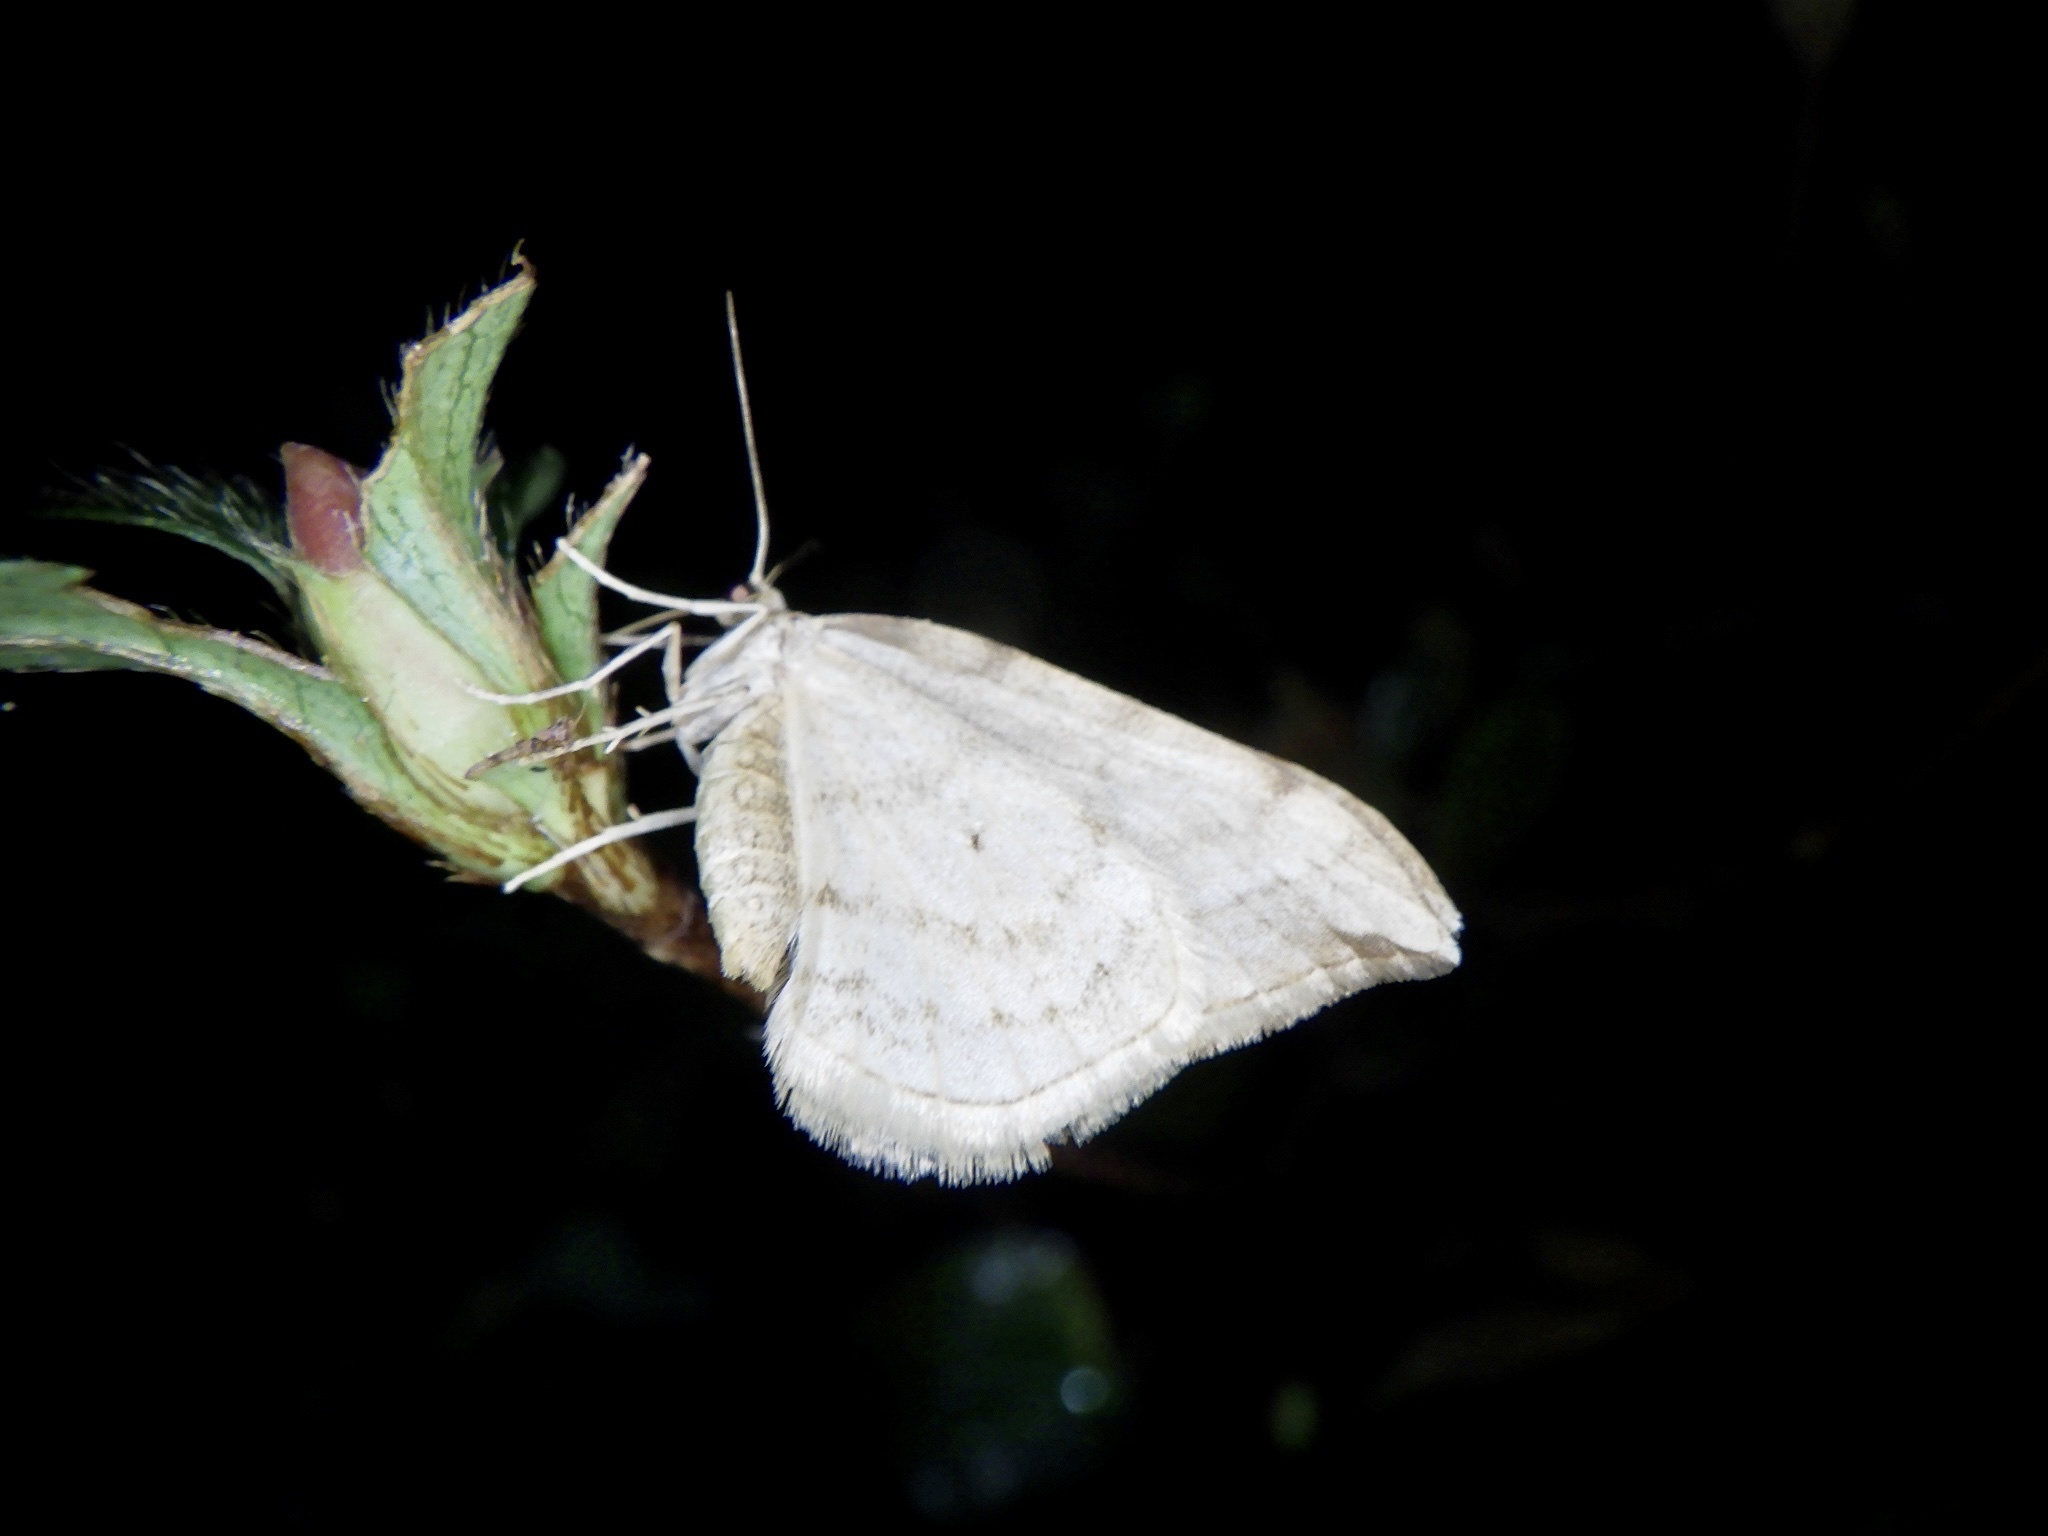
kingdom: Animalia
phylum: Arthropoda
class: Insecta
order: Lepidoptera
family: Geometridae
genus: Nothoporinia
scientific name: Nothoporinia mediolineata
